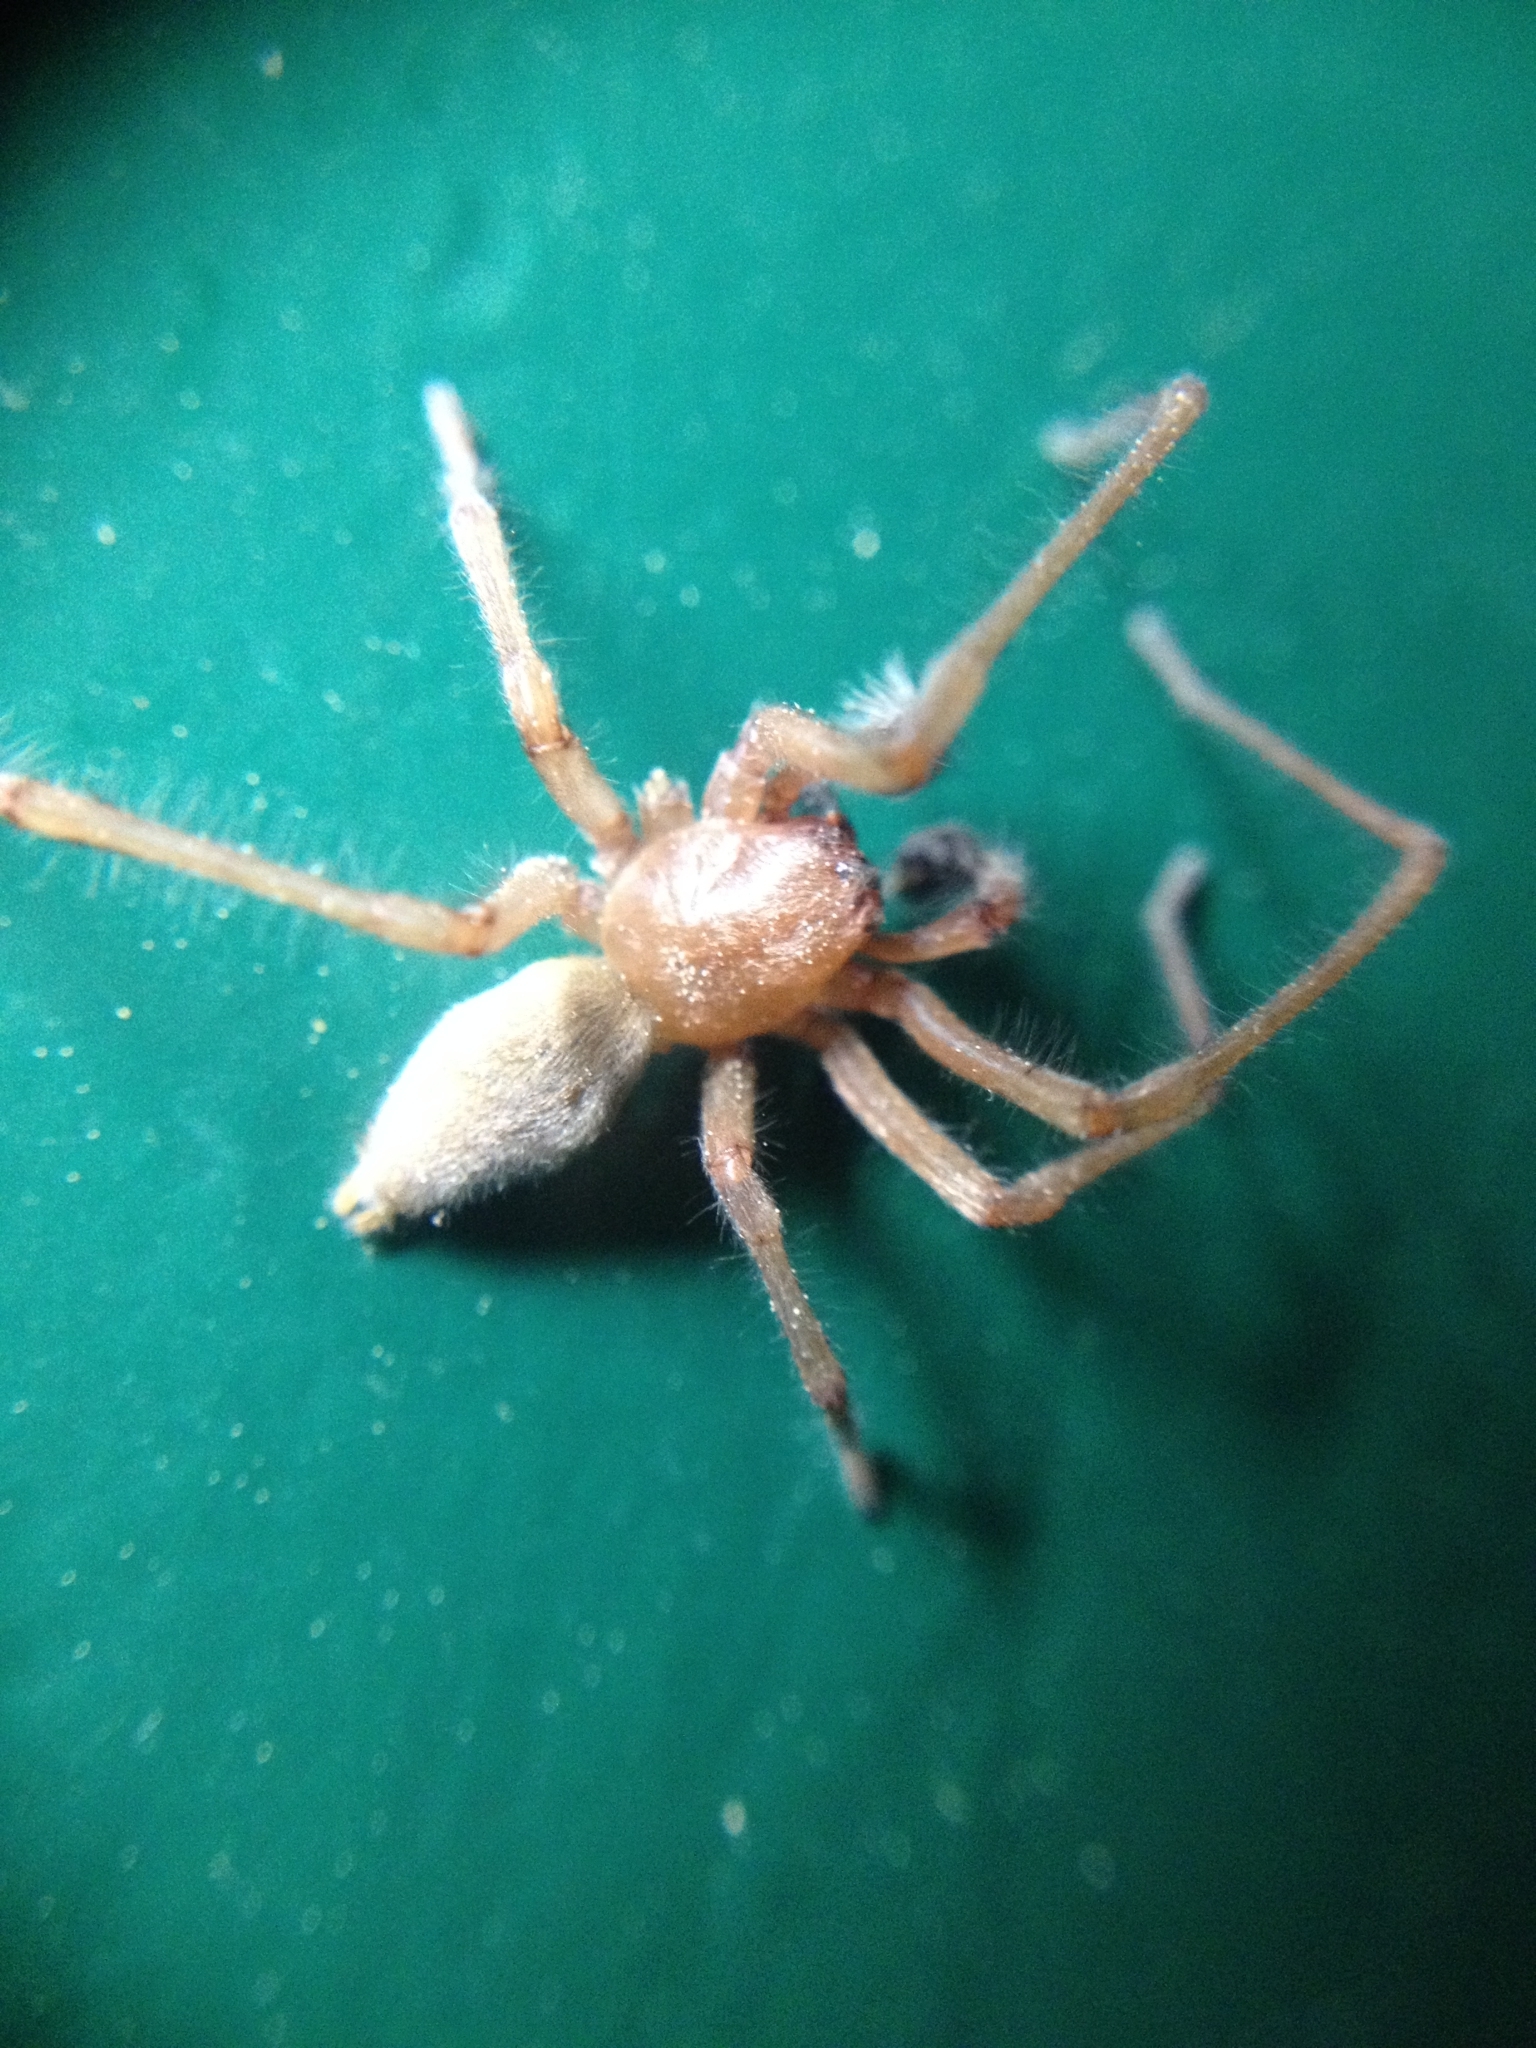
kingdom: Animalia
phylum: Arthropoda
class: Arachnida
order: Araneae
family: Cheiracanthiidae
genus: Cheiracanthium
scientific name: Cheiracanthium virescens
